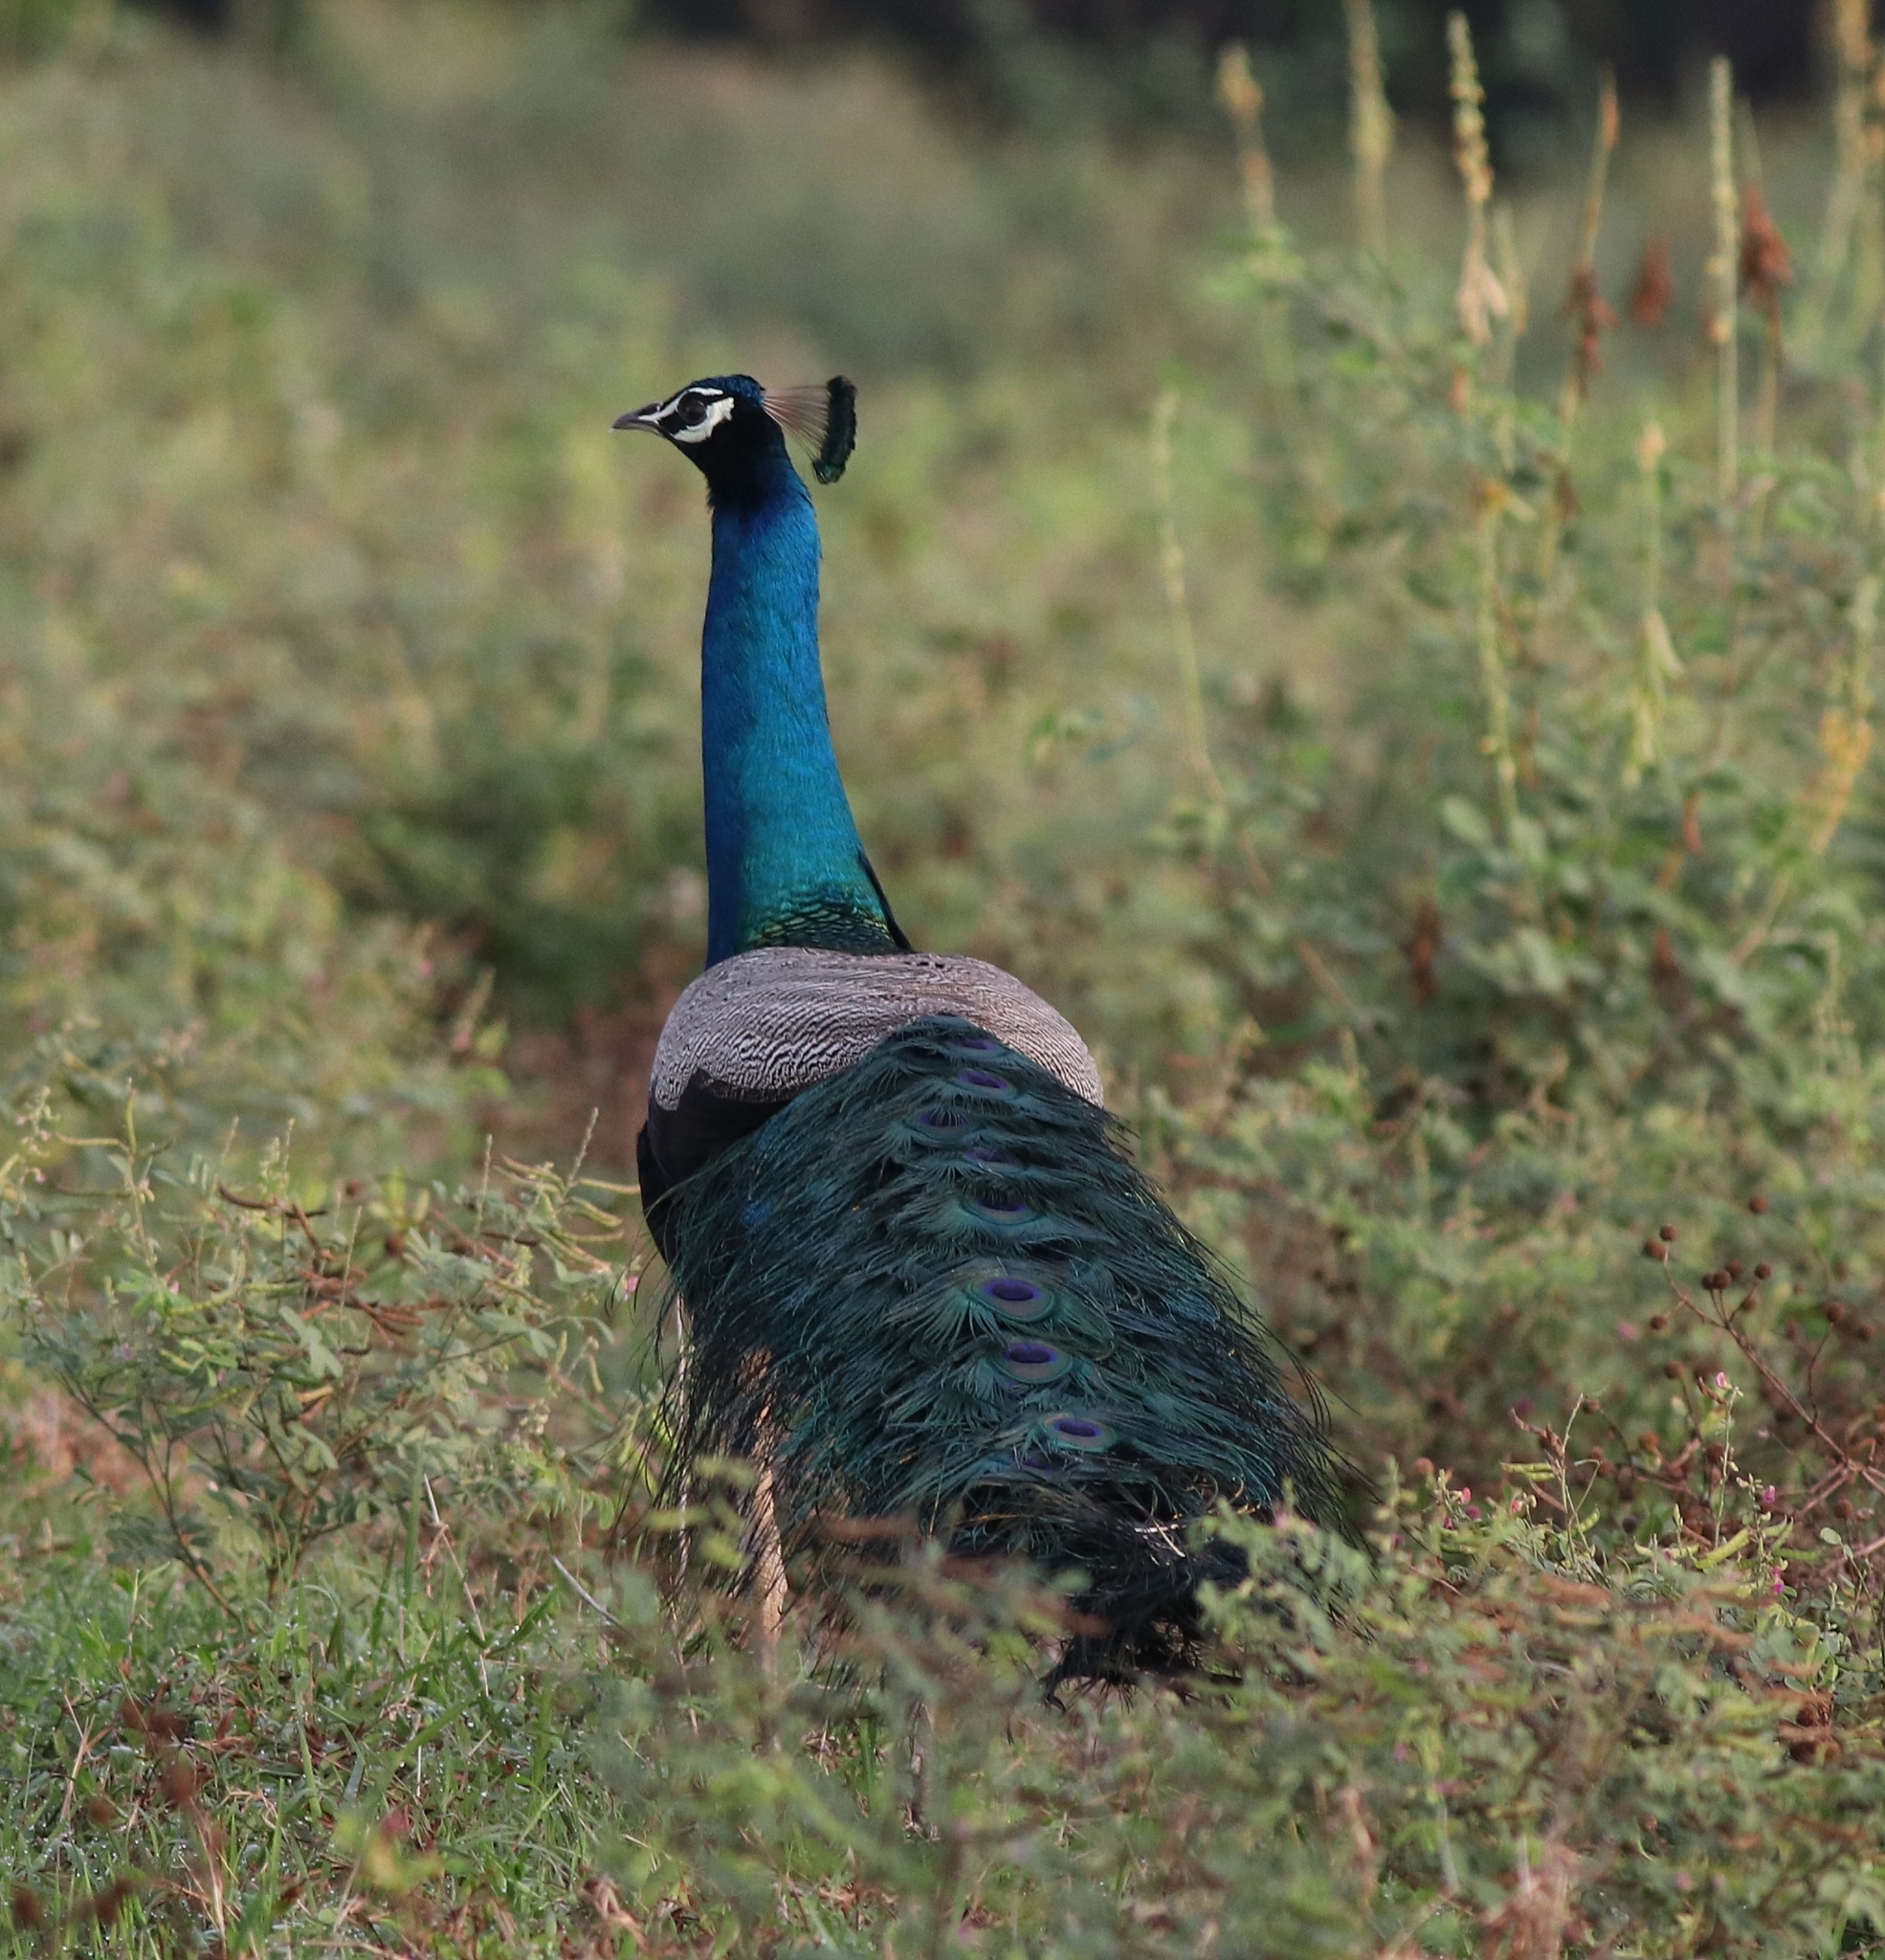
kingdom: Animalia
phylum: Chordata
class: Aves
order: Galliformes
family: Phasianidae
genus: Pavo
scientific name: Pavo cristatus
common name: Indian peafowl
